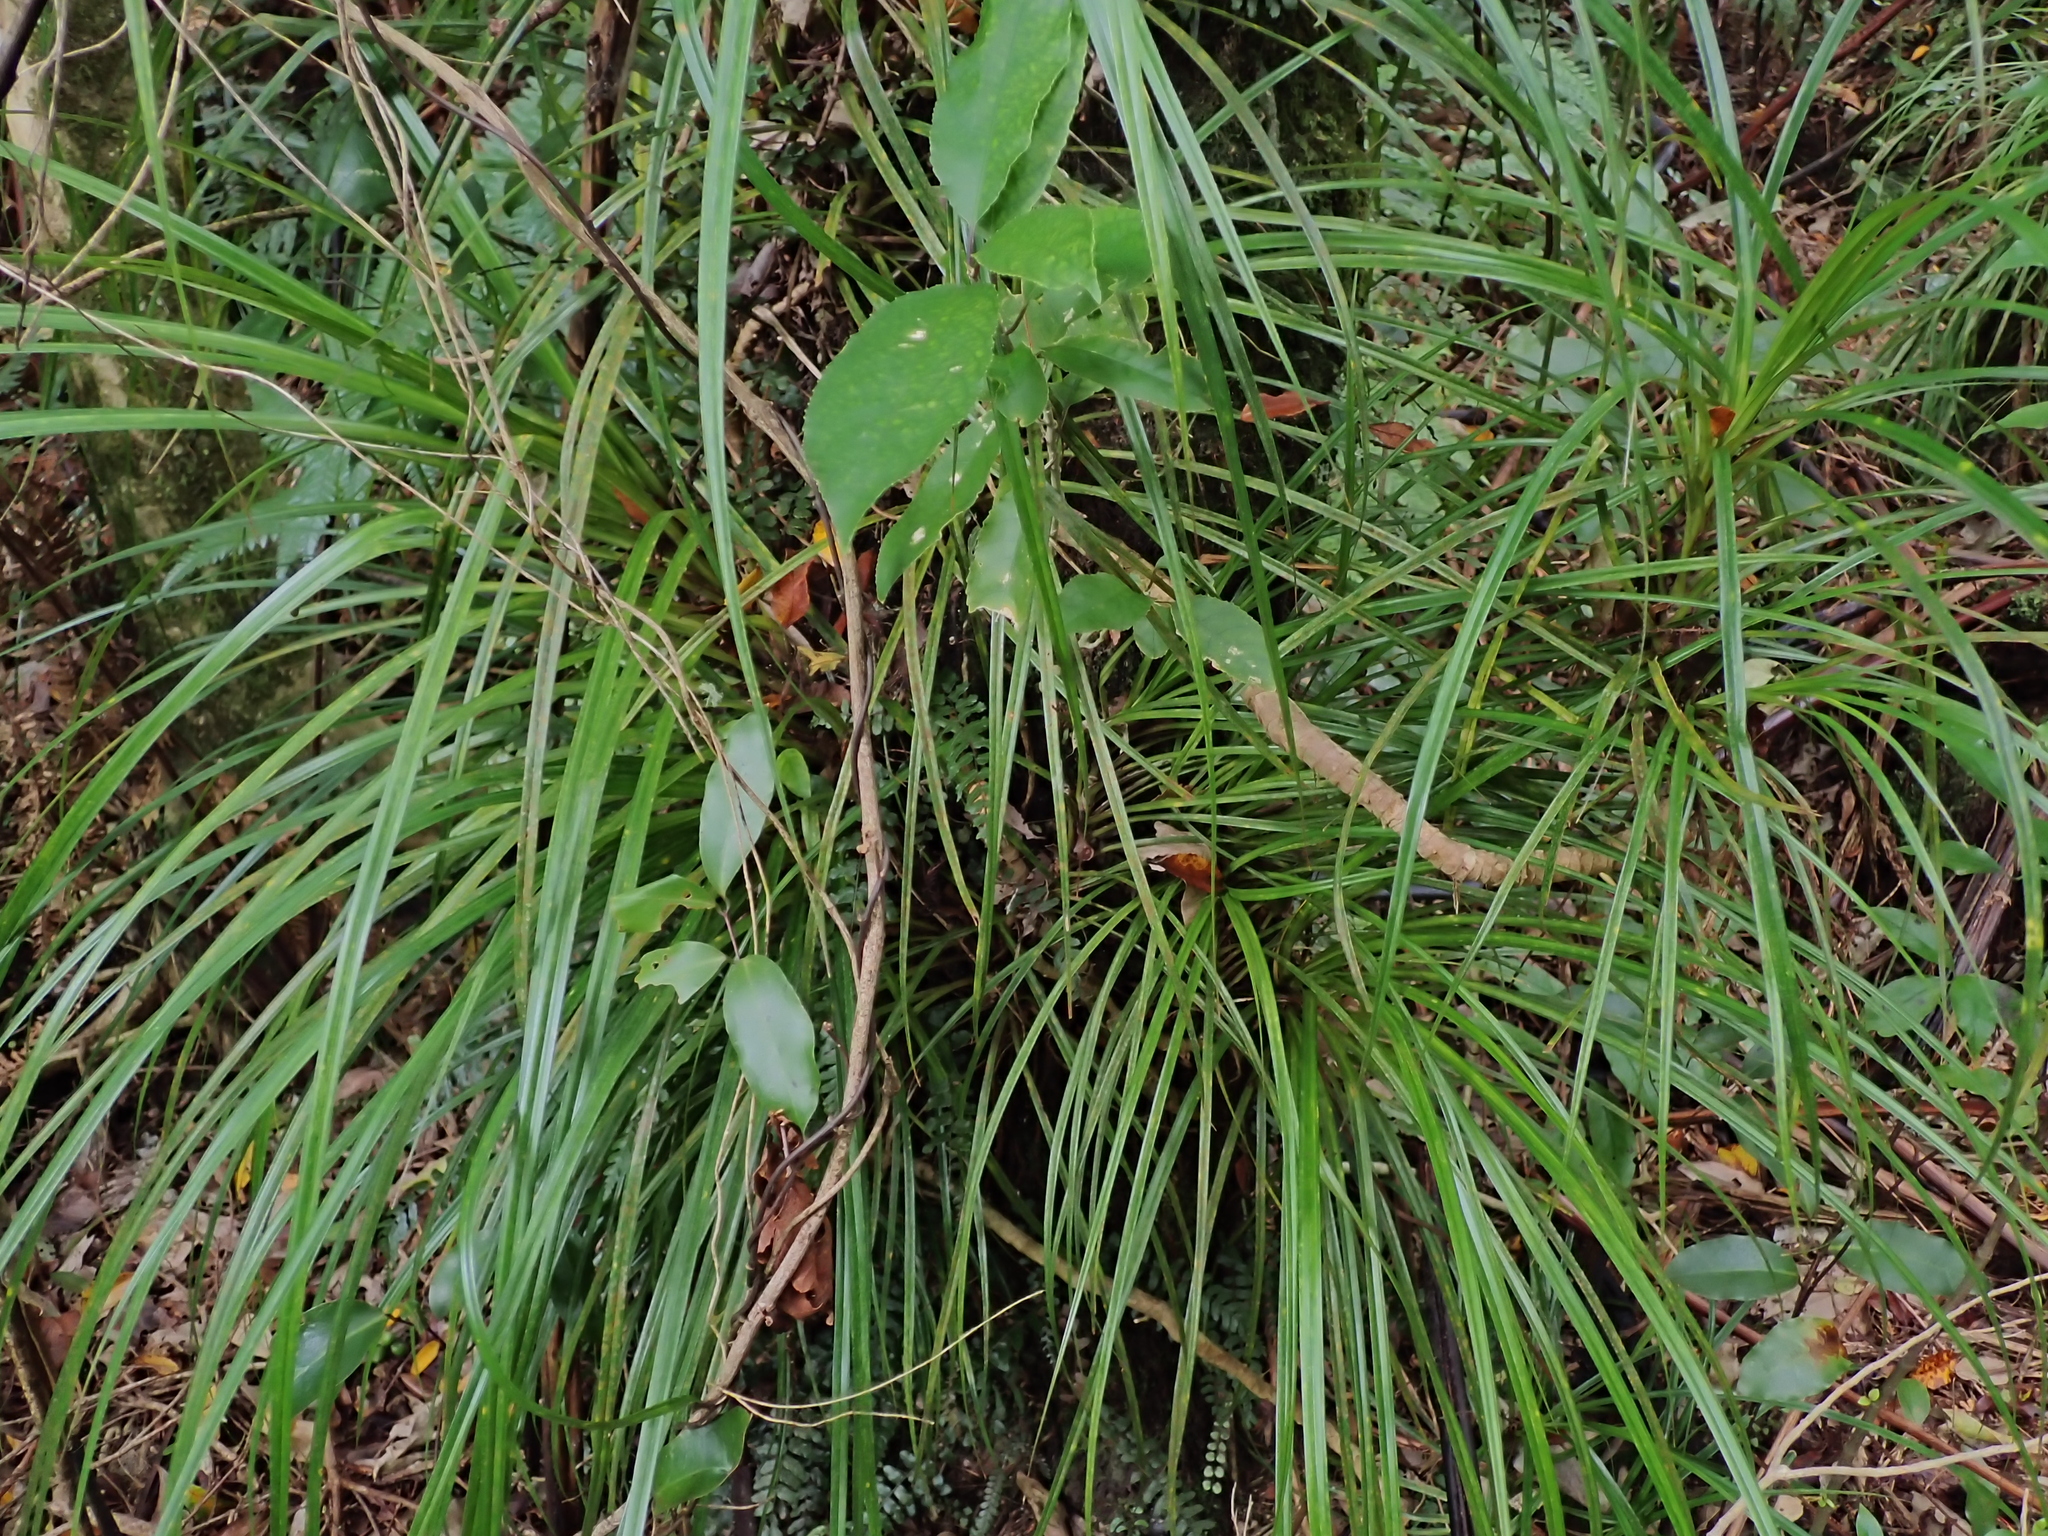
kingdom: Plantae
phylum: Tracheophyta
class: Liliopsida
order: Pandanales
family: Pandanaceae
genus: Freycinetia
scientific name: Freycinetia banksii
